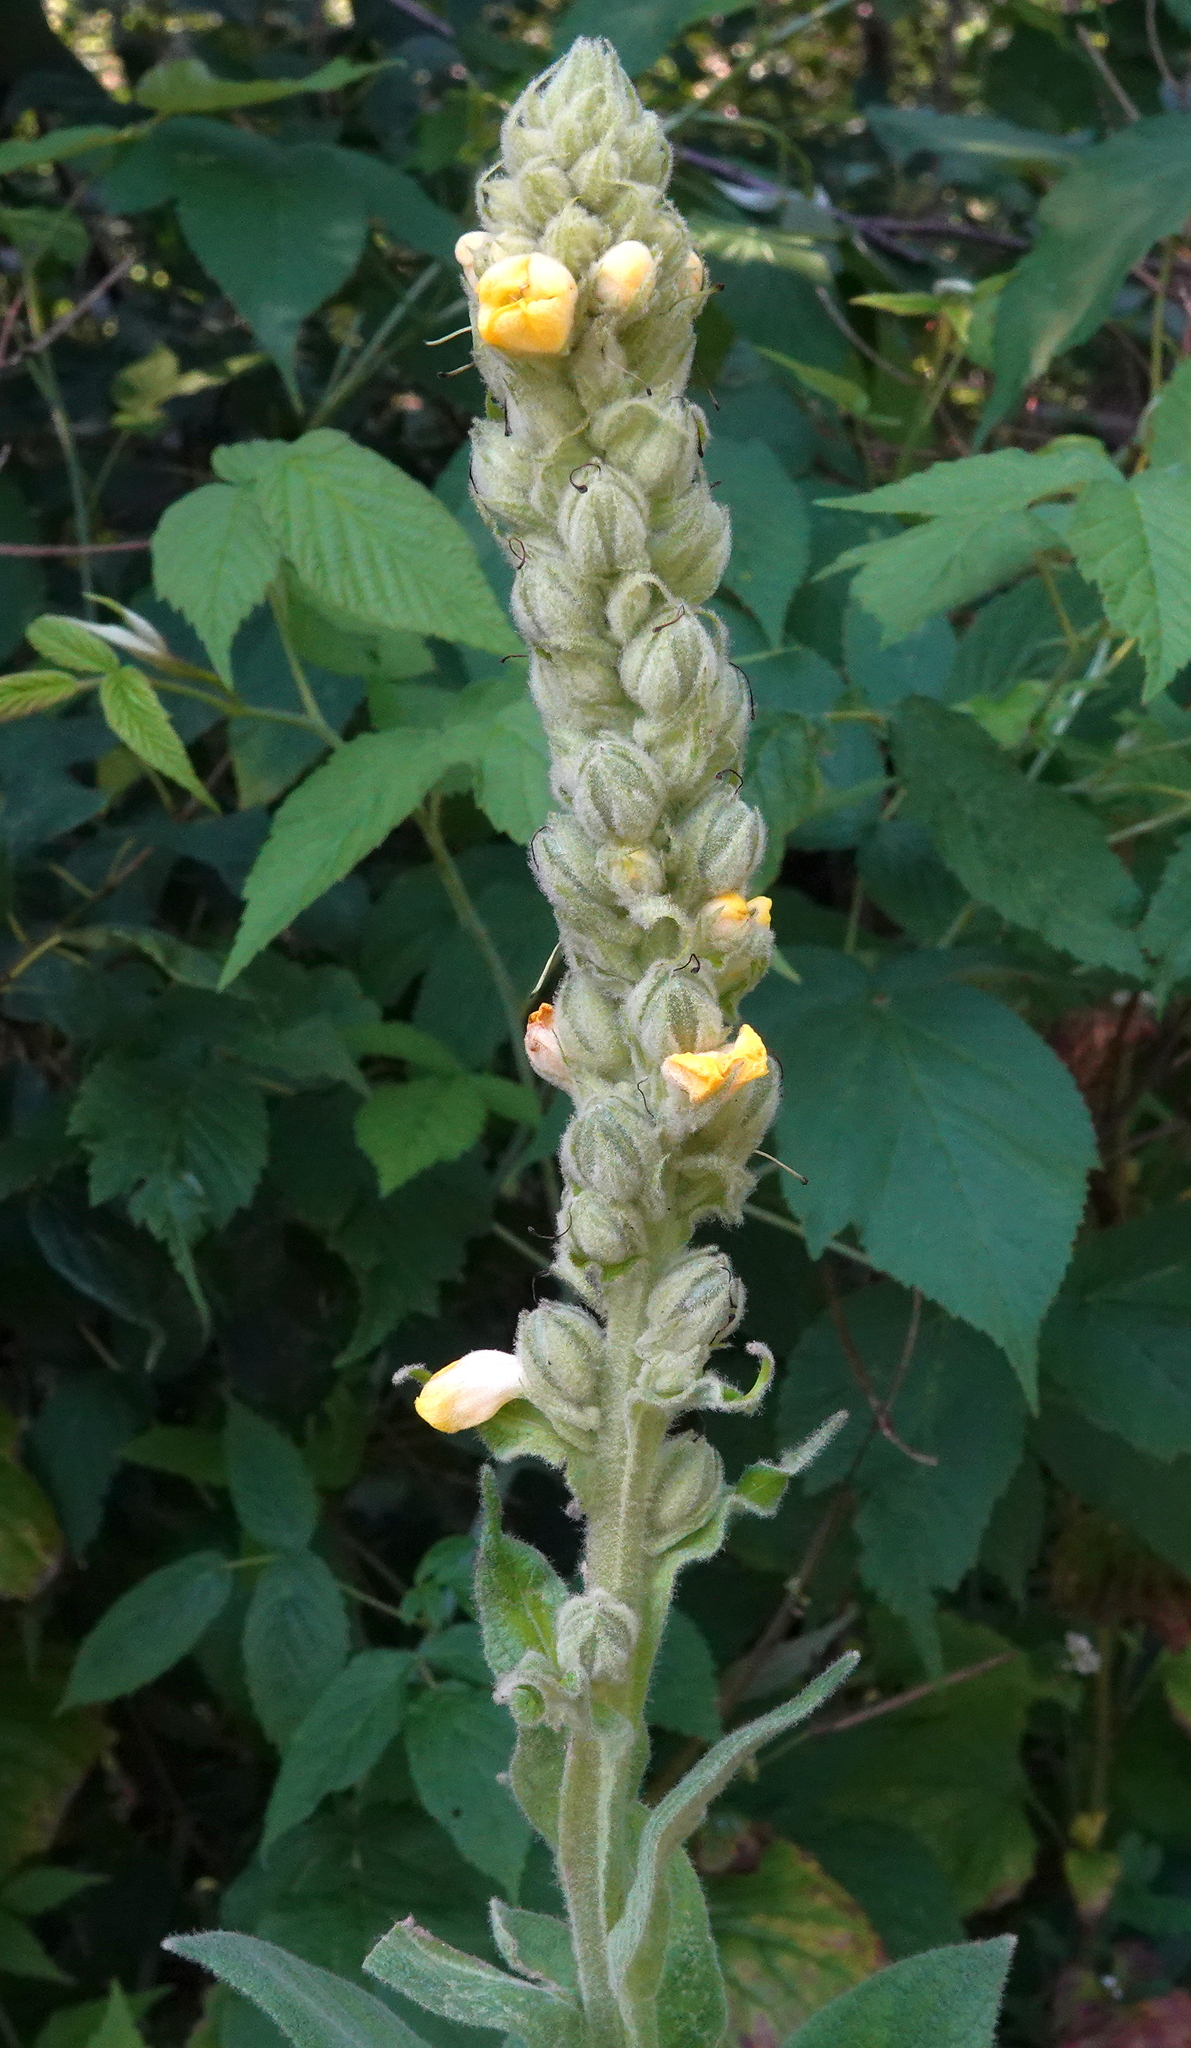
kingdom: Plantae
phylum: Tracheophyta
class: Magnoliopsida
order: Lamiales
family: Scrophulariaceae
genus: Verbascum
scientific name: Verbascum thapsus
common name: Common mullein
